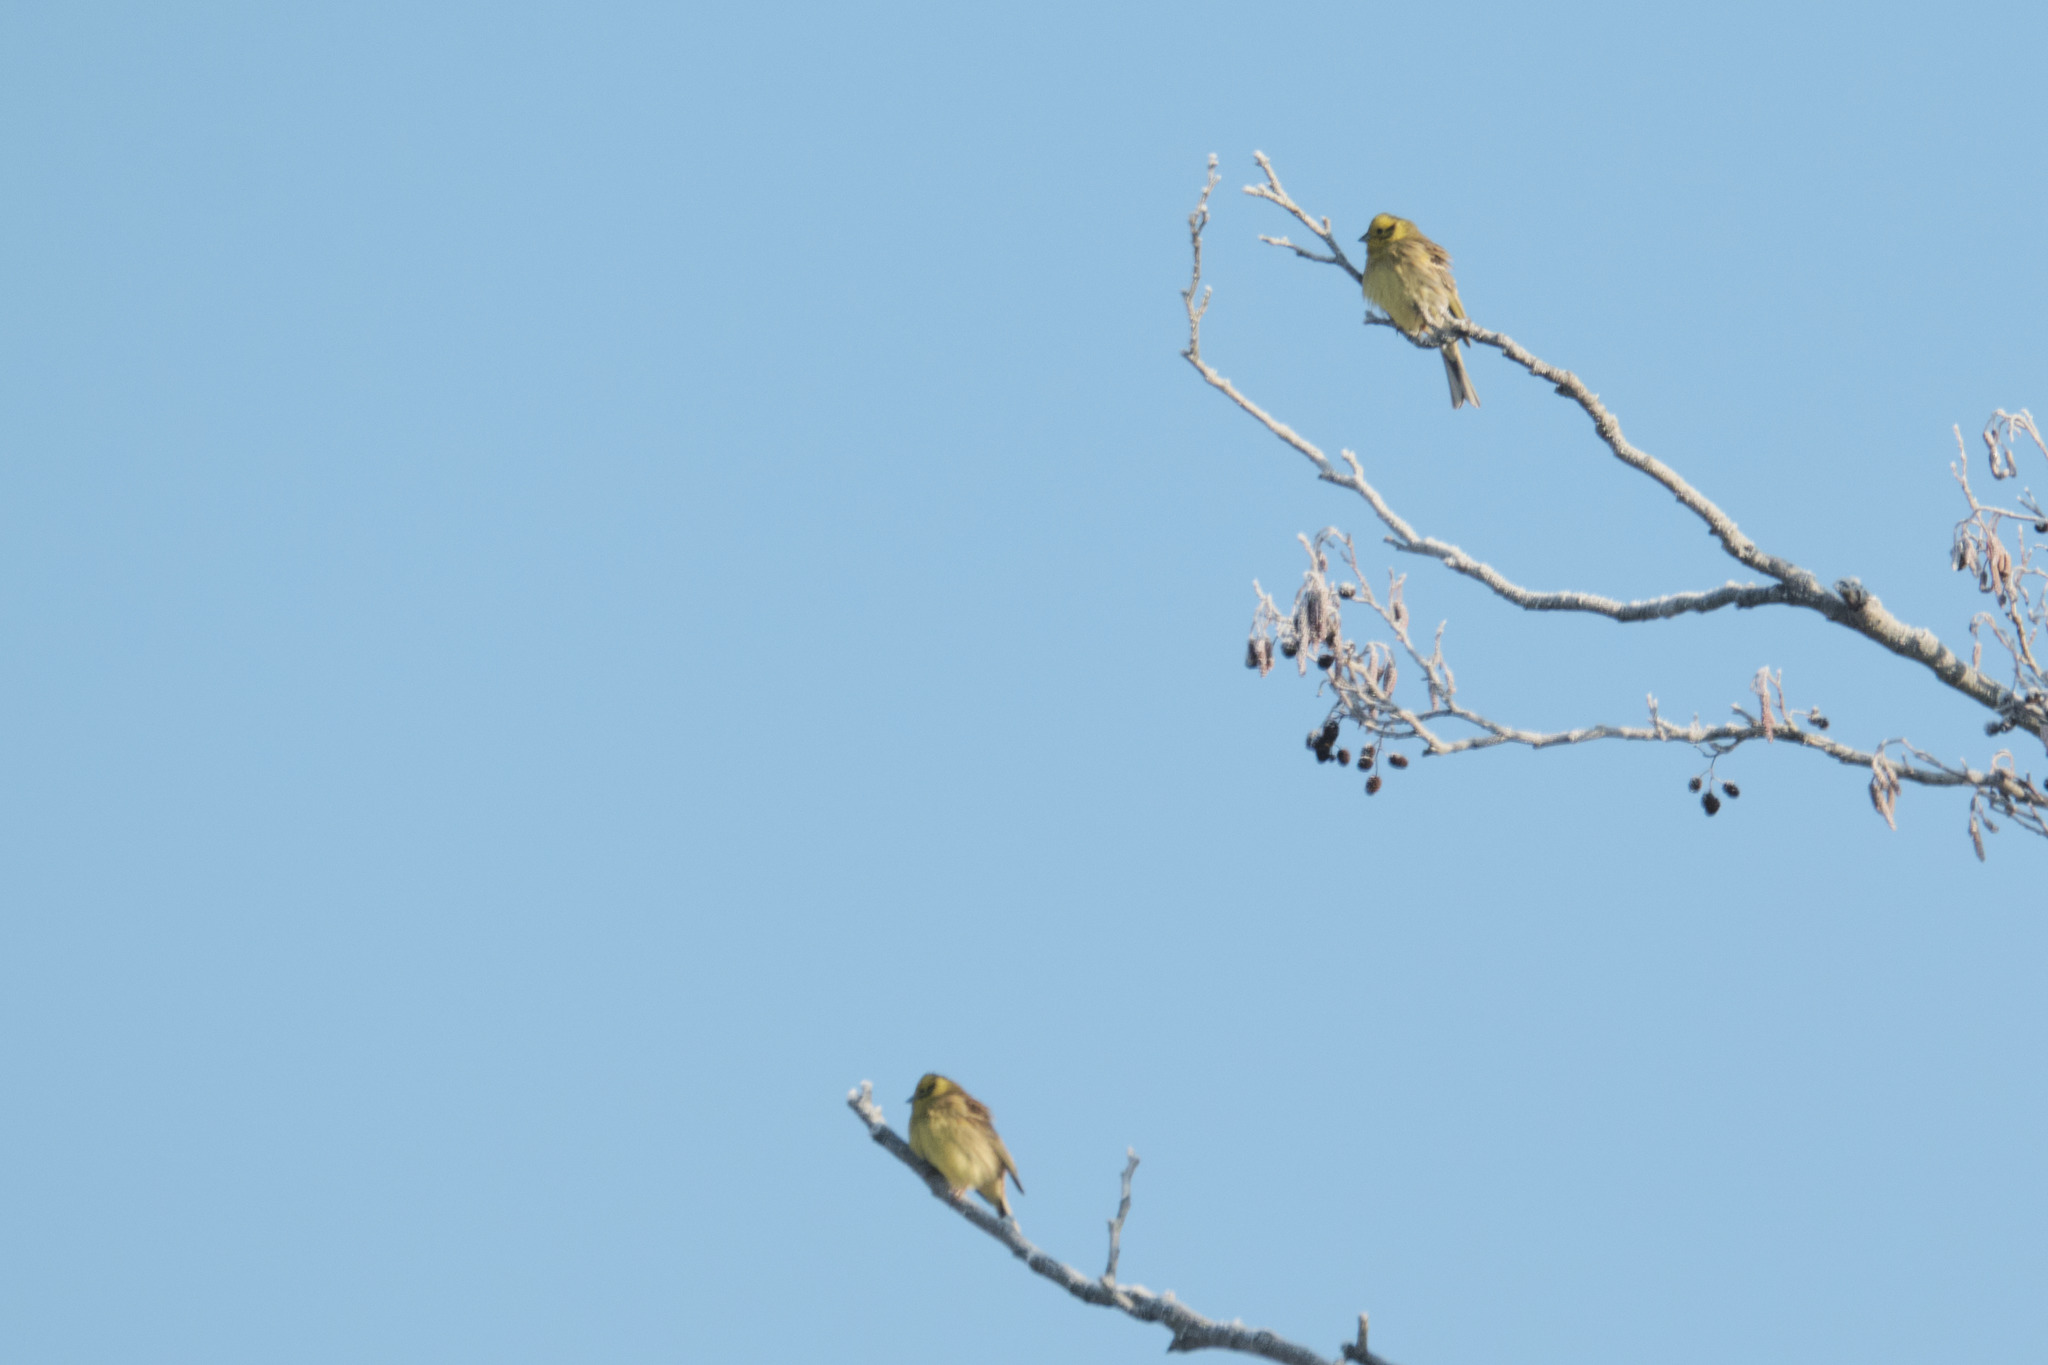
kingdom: Animalia
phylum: Chordata
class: Aves
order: Passeriformes
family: Emberizidae
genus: Emberiza
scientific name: Emberiza citrinella
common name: Yellowhammer
